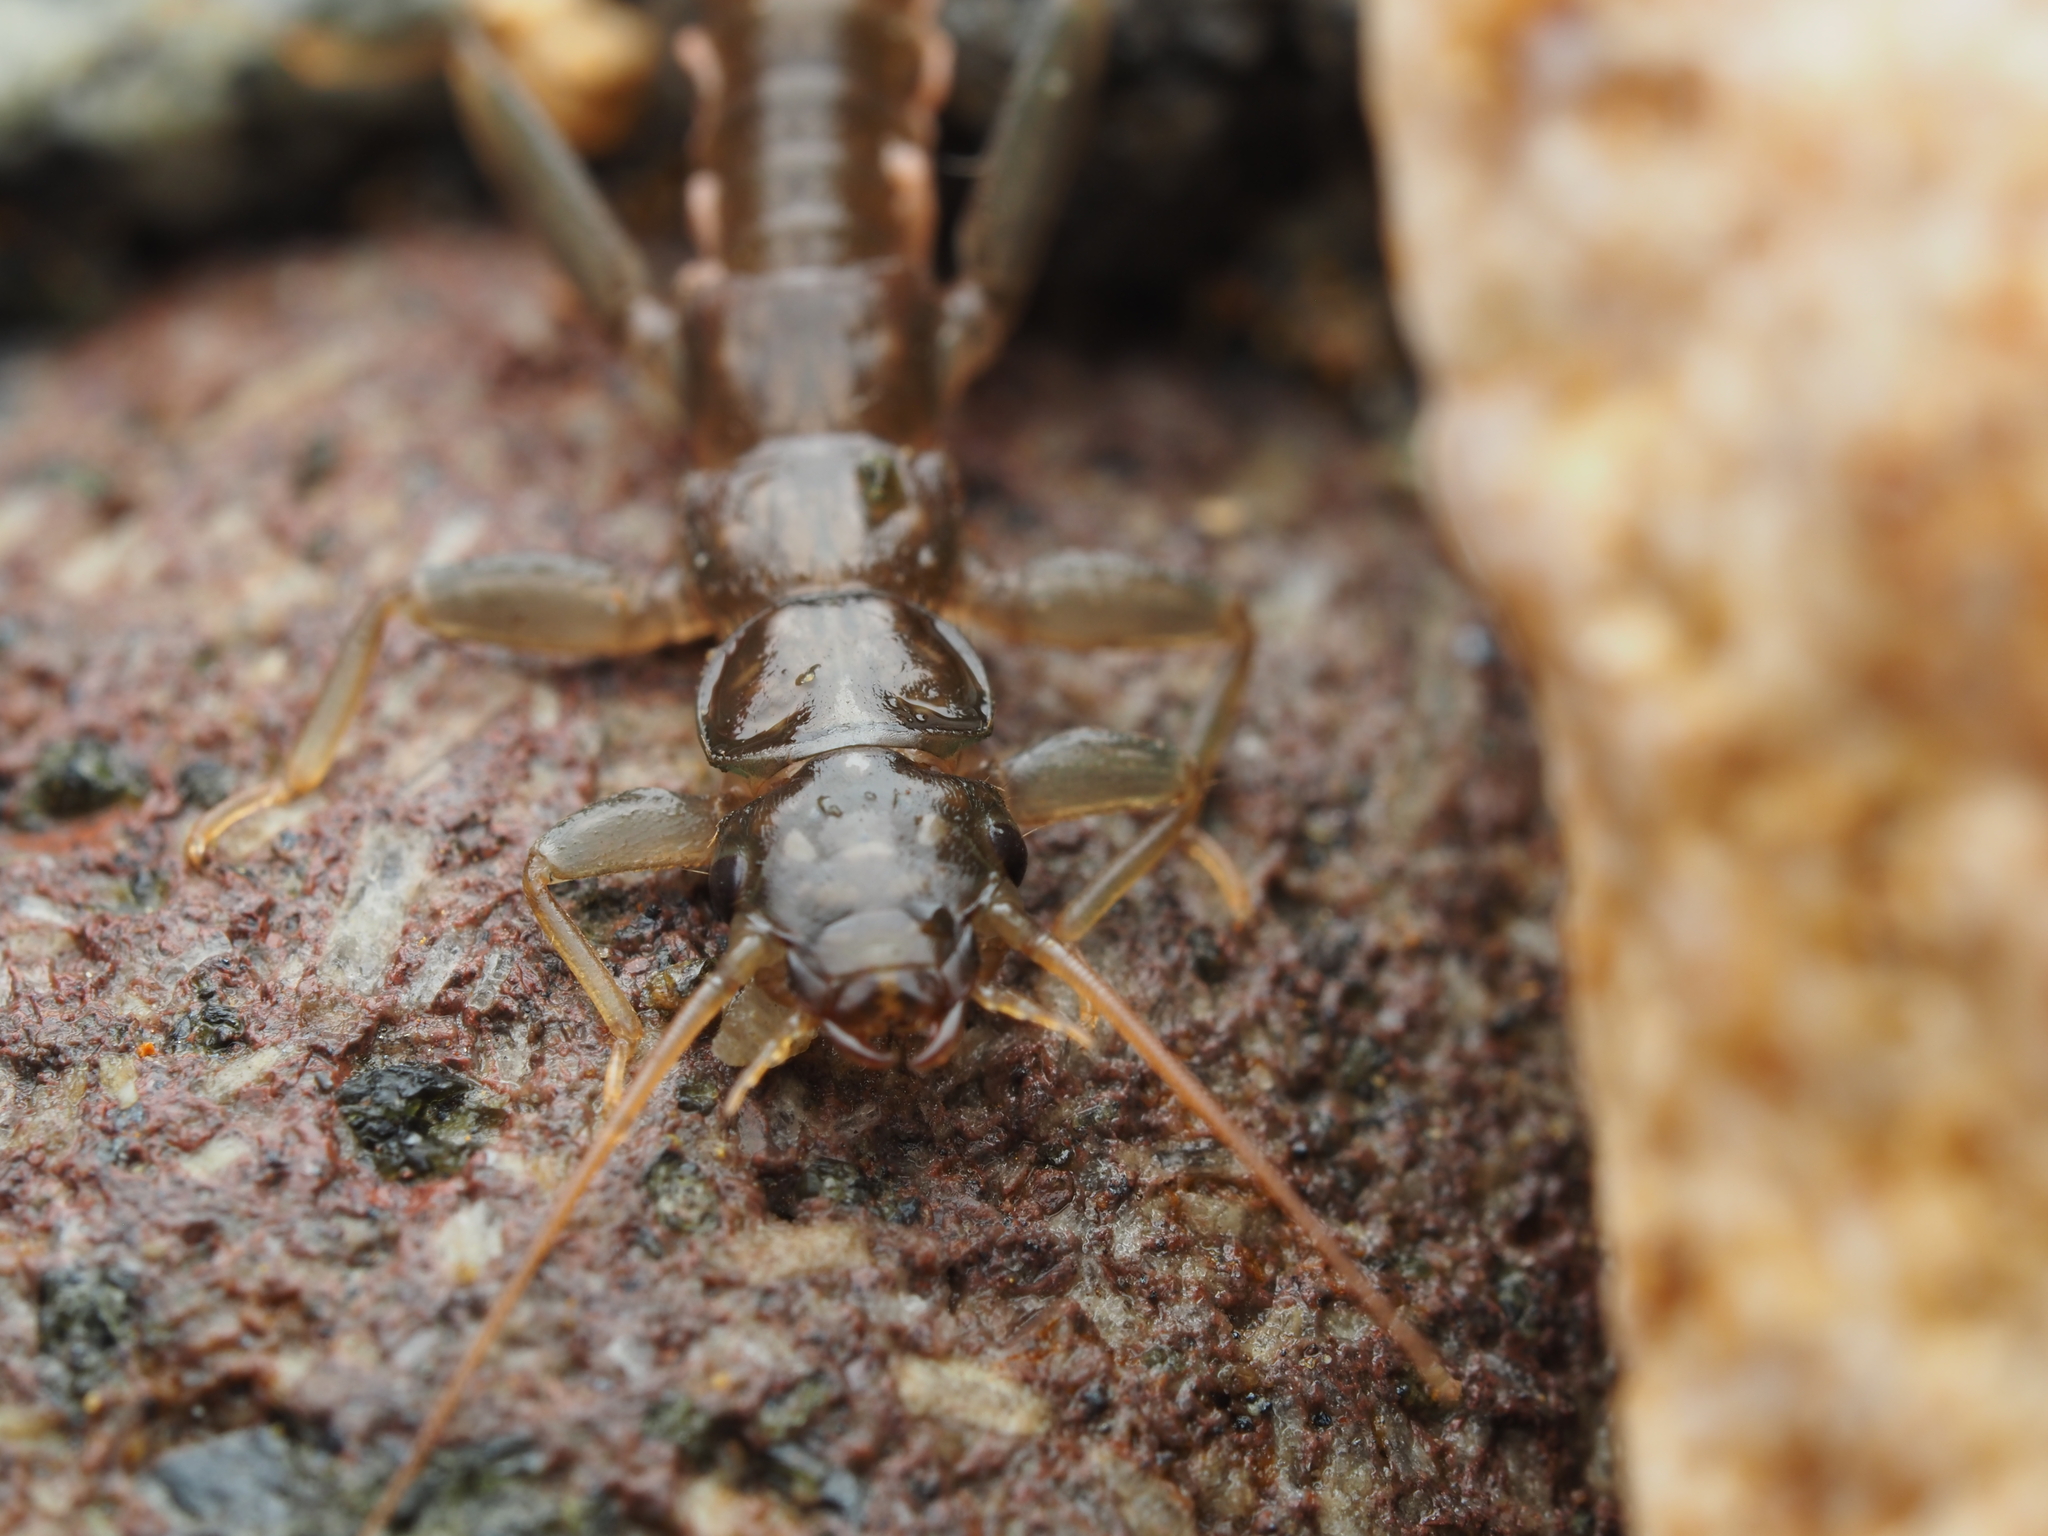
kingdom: Animalia
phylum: Arthropoda
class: Insecta
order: Plecoptera
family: Eustheniidae
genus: Stenoperla
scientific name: Stenoperla prasina
